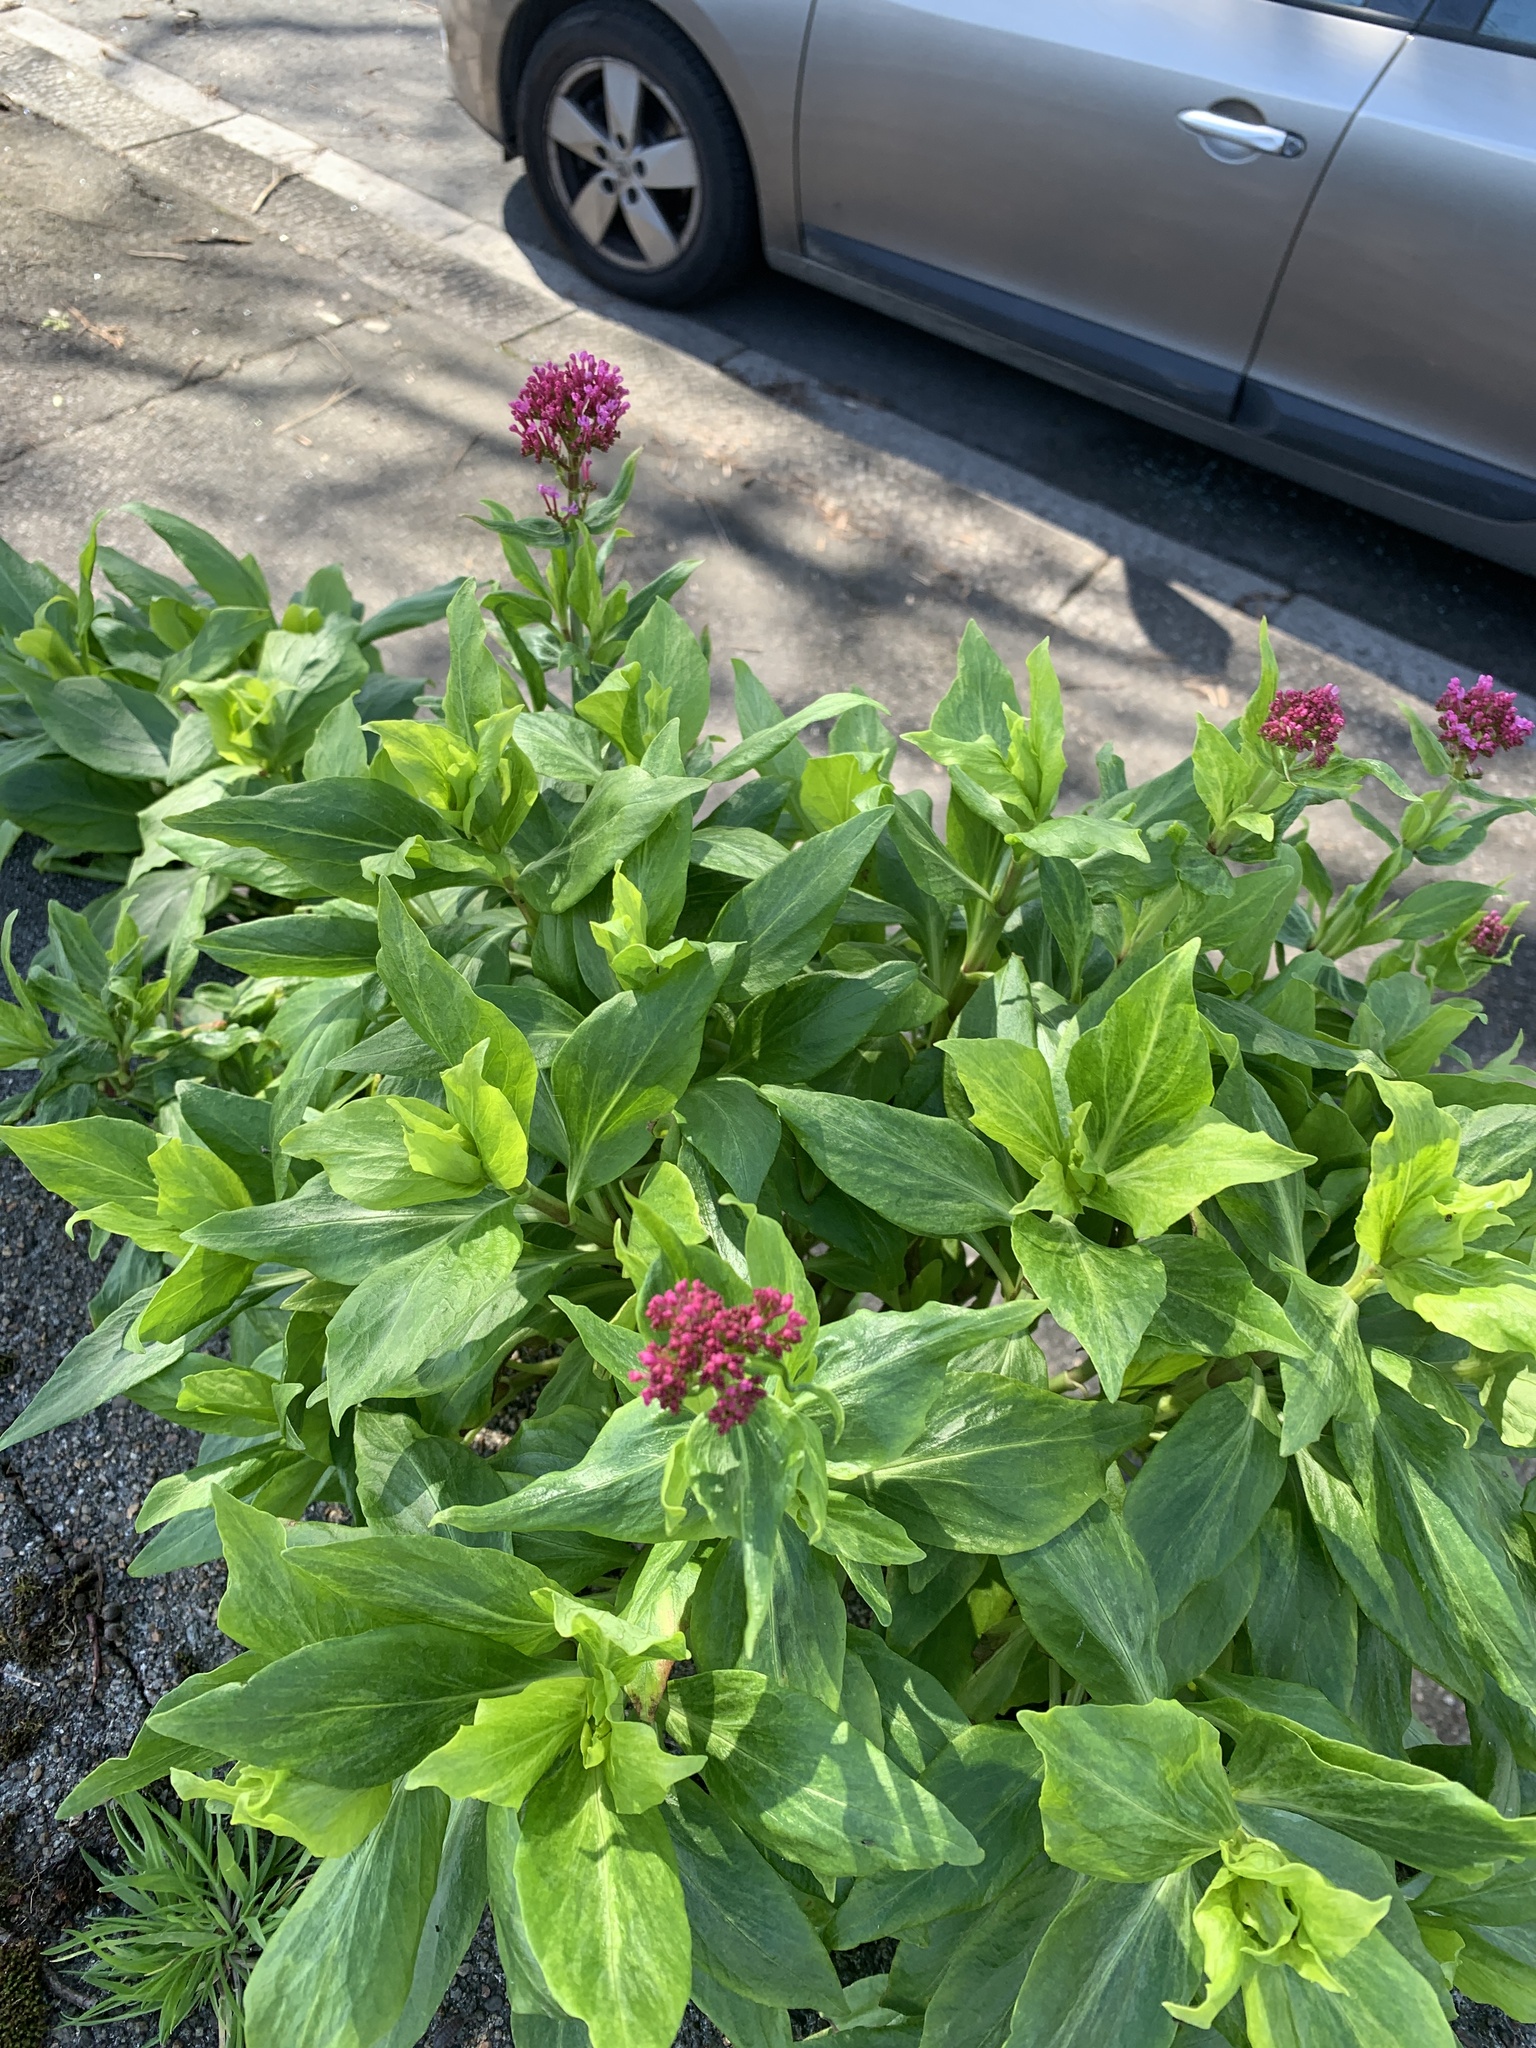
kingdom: Plantae
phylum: Tracheophyta
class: Magnoliopsida
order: Dipsacales
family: Caprifoliaceae
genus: Centranthus
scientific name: Centranthus ruber
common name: Red valerian
